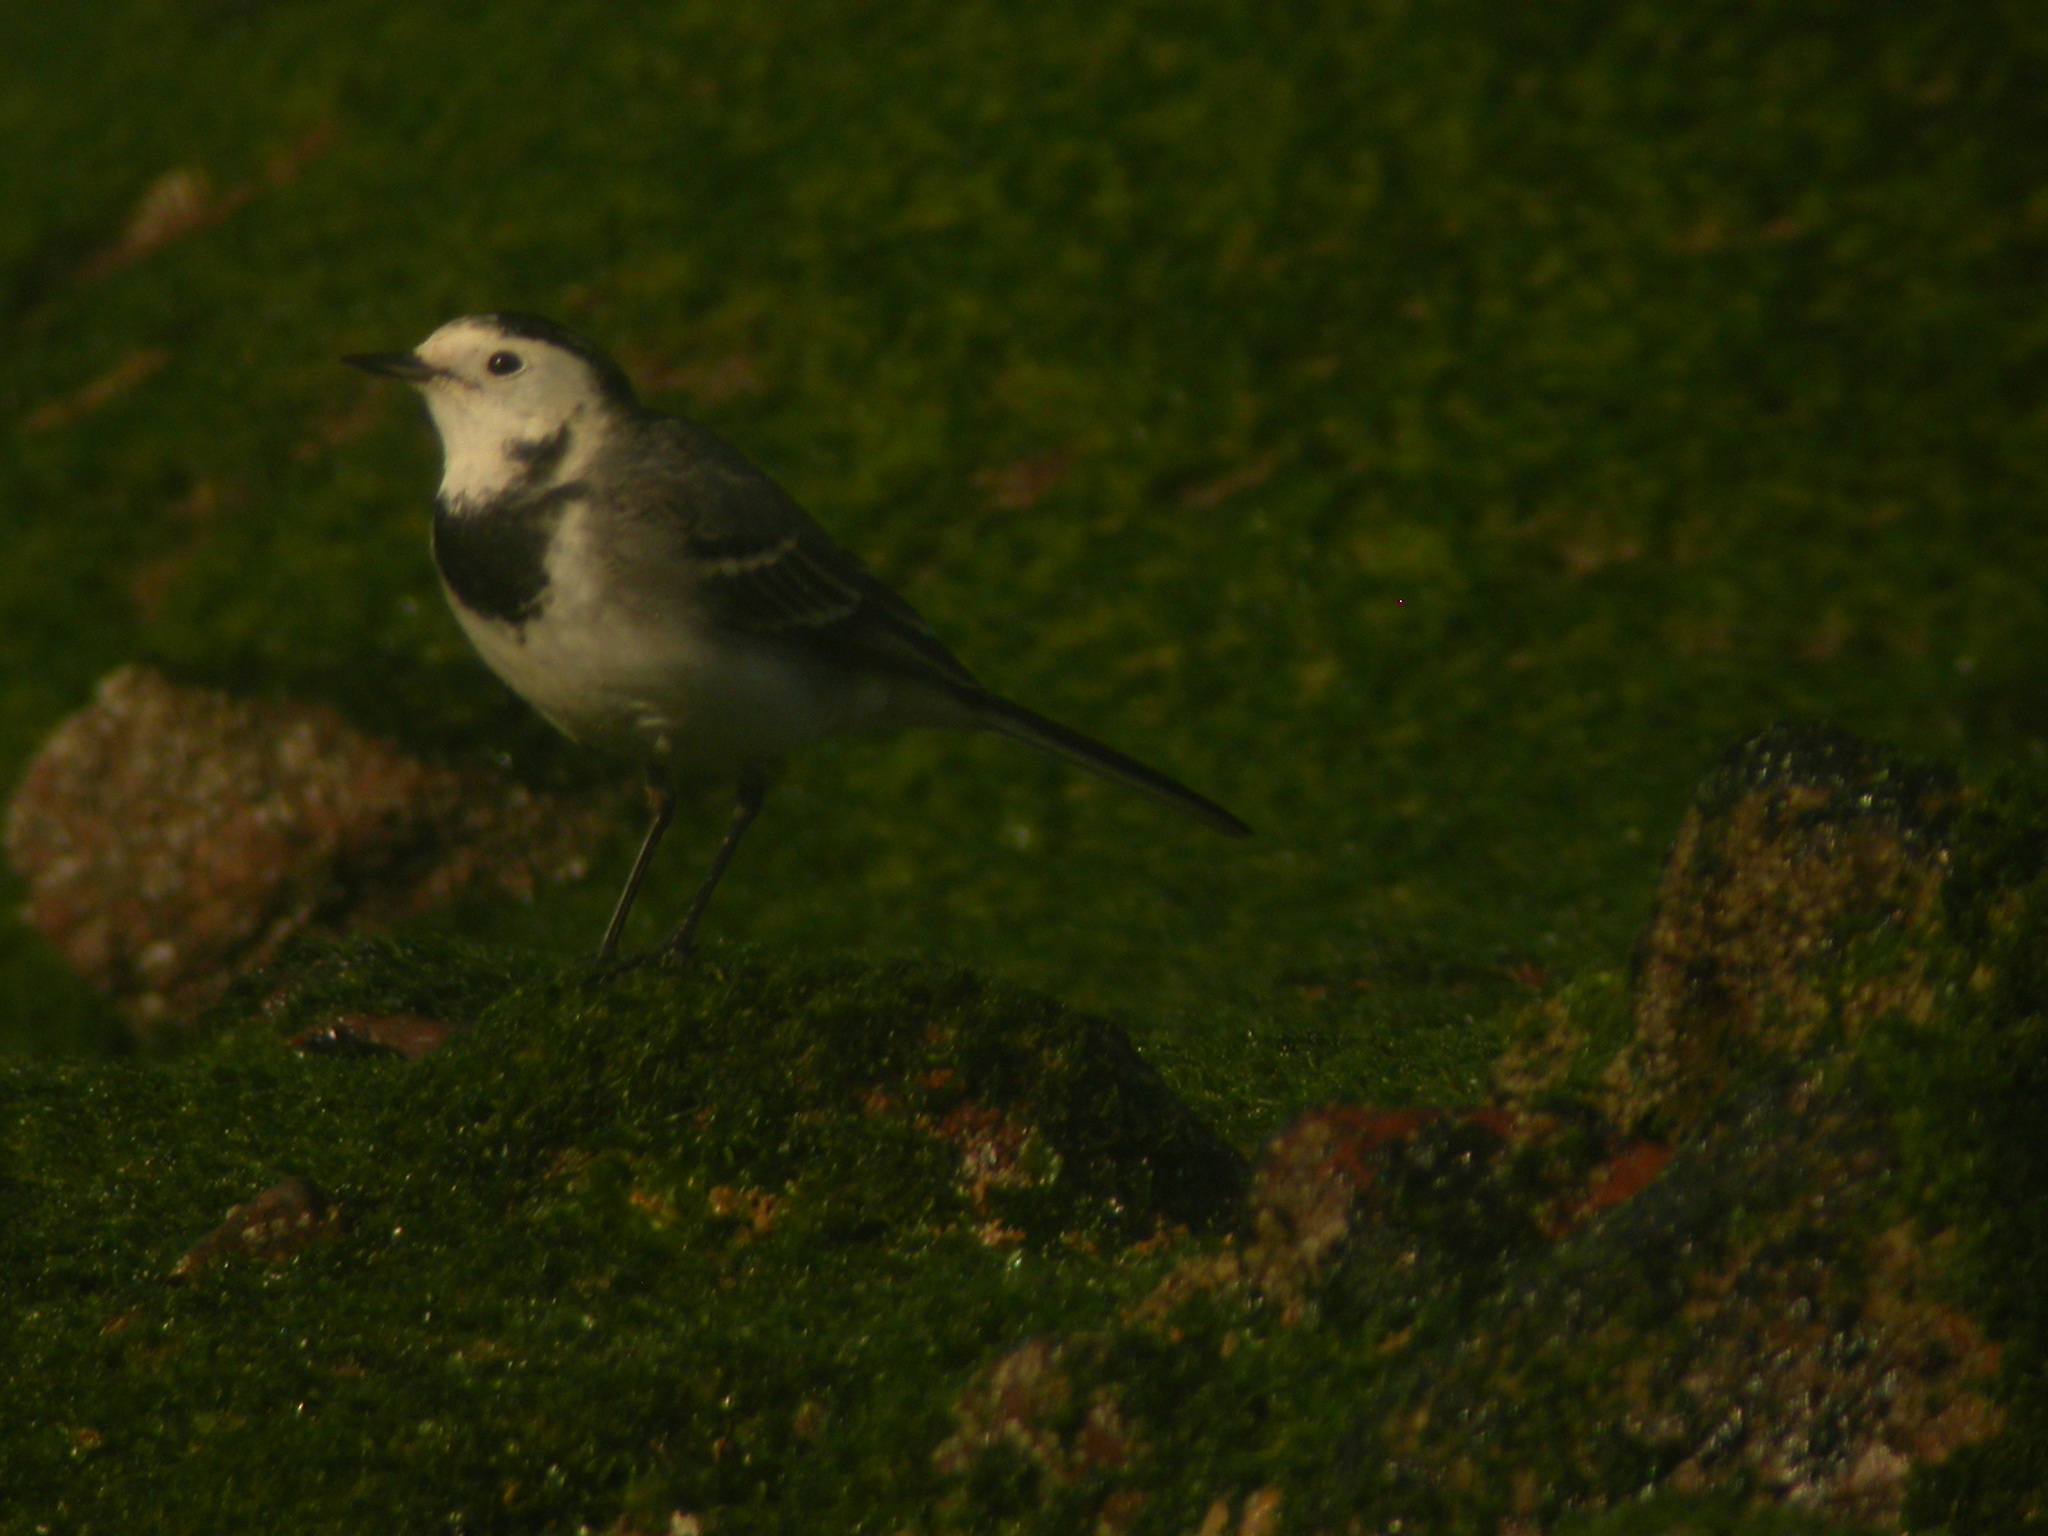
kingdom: Animalia
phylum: Chordata
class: Aves
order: Passeriformes
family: Motacillidae
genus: Motacilla
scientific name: Motacilla alba
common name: White wagtail
